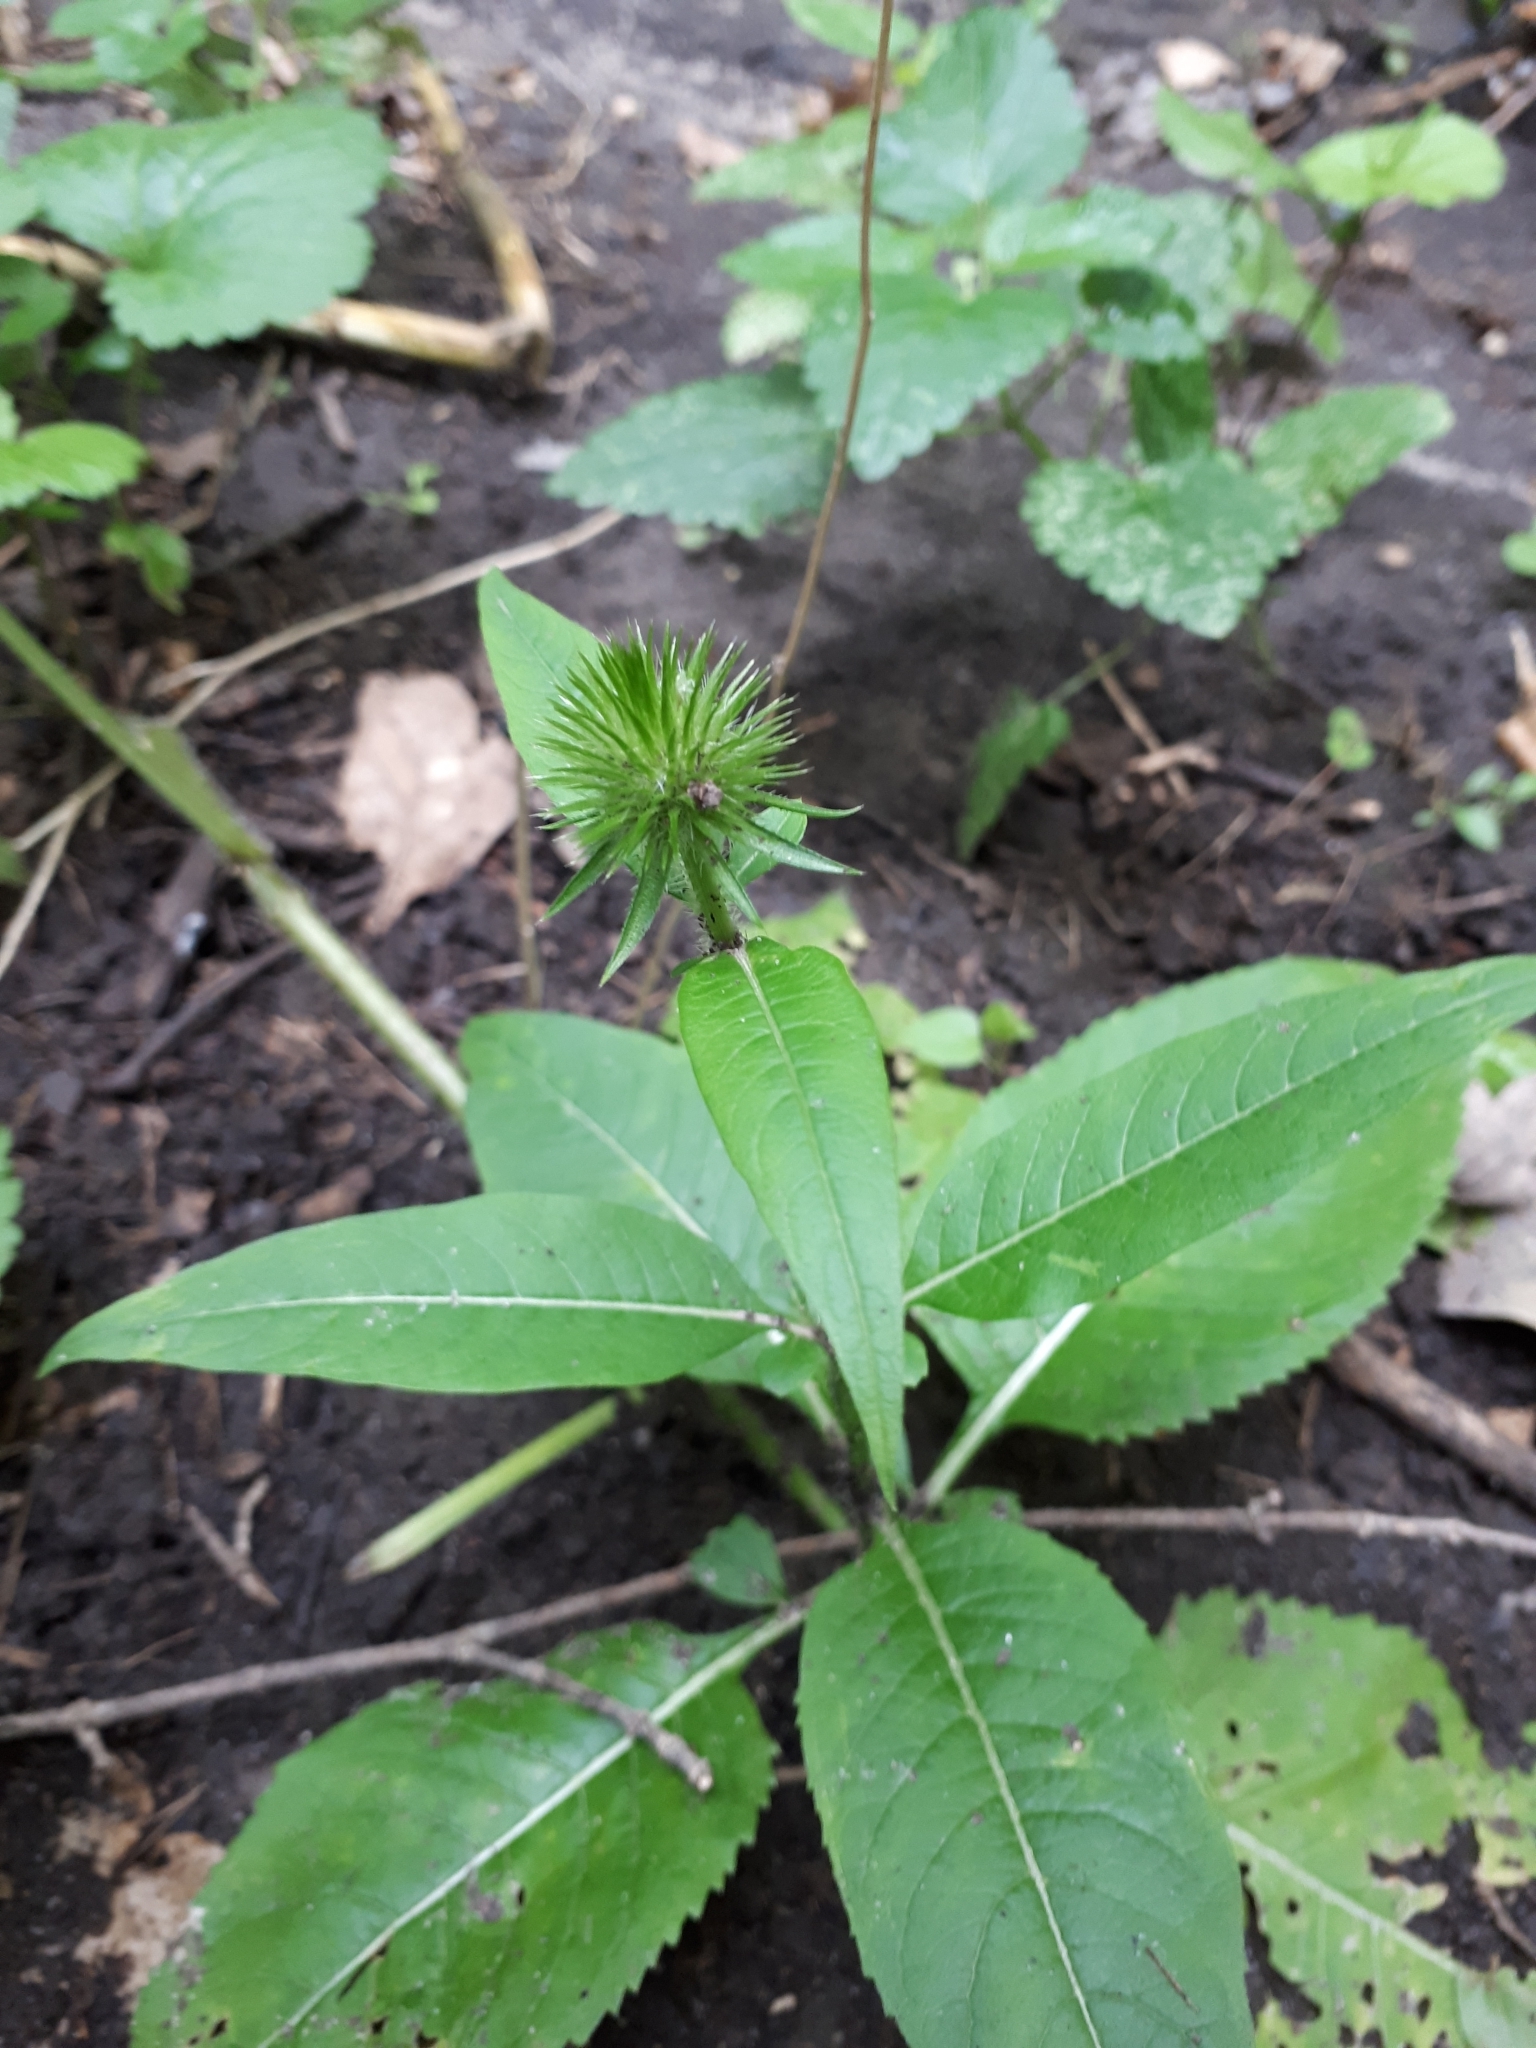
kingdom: Plantae
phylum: Tracheophyta
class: Magnoliopsida
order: Dipsacales
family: Caprifoliaceae
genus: Dipsacus
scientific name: Dipsacus strigosus
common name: Yellow-flowered teasel
